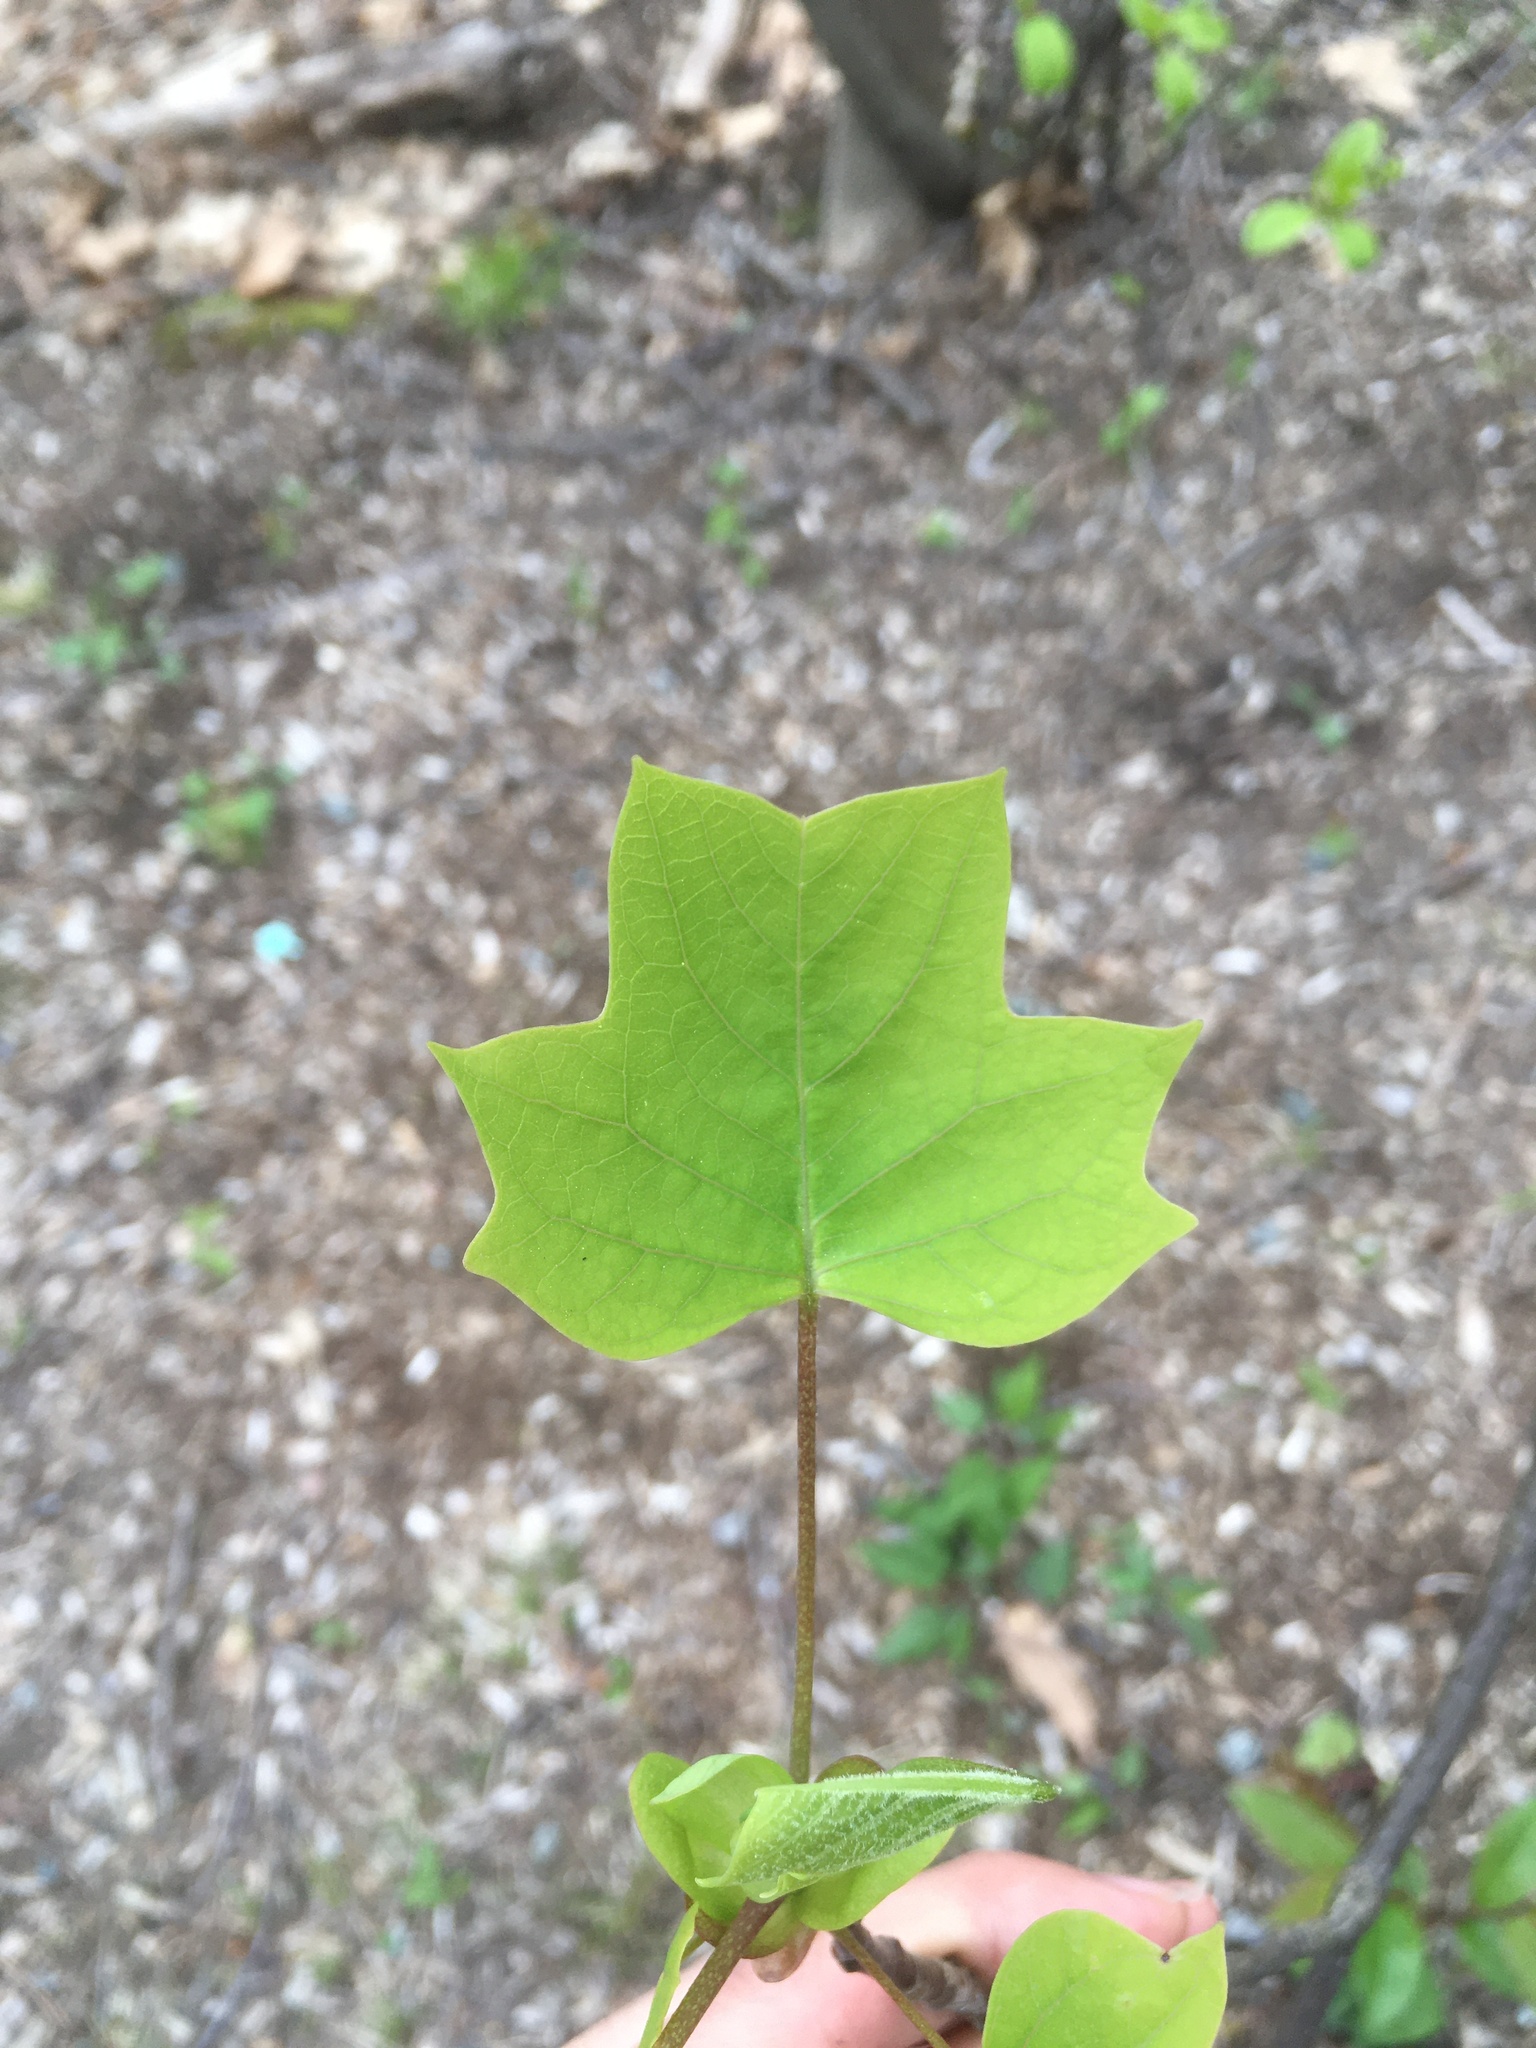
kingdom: Plantae
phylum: Tracheophyta
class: Magnoliopsida
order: Magnoliales
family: Magnoliaceae
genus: Liriodendron
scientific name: Liriodendron tulipifera
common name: Tulip tree
